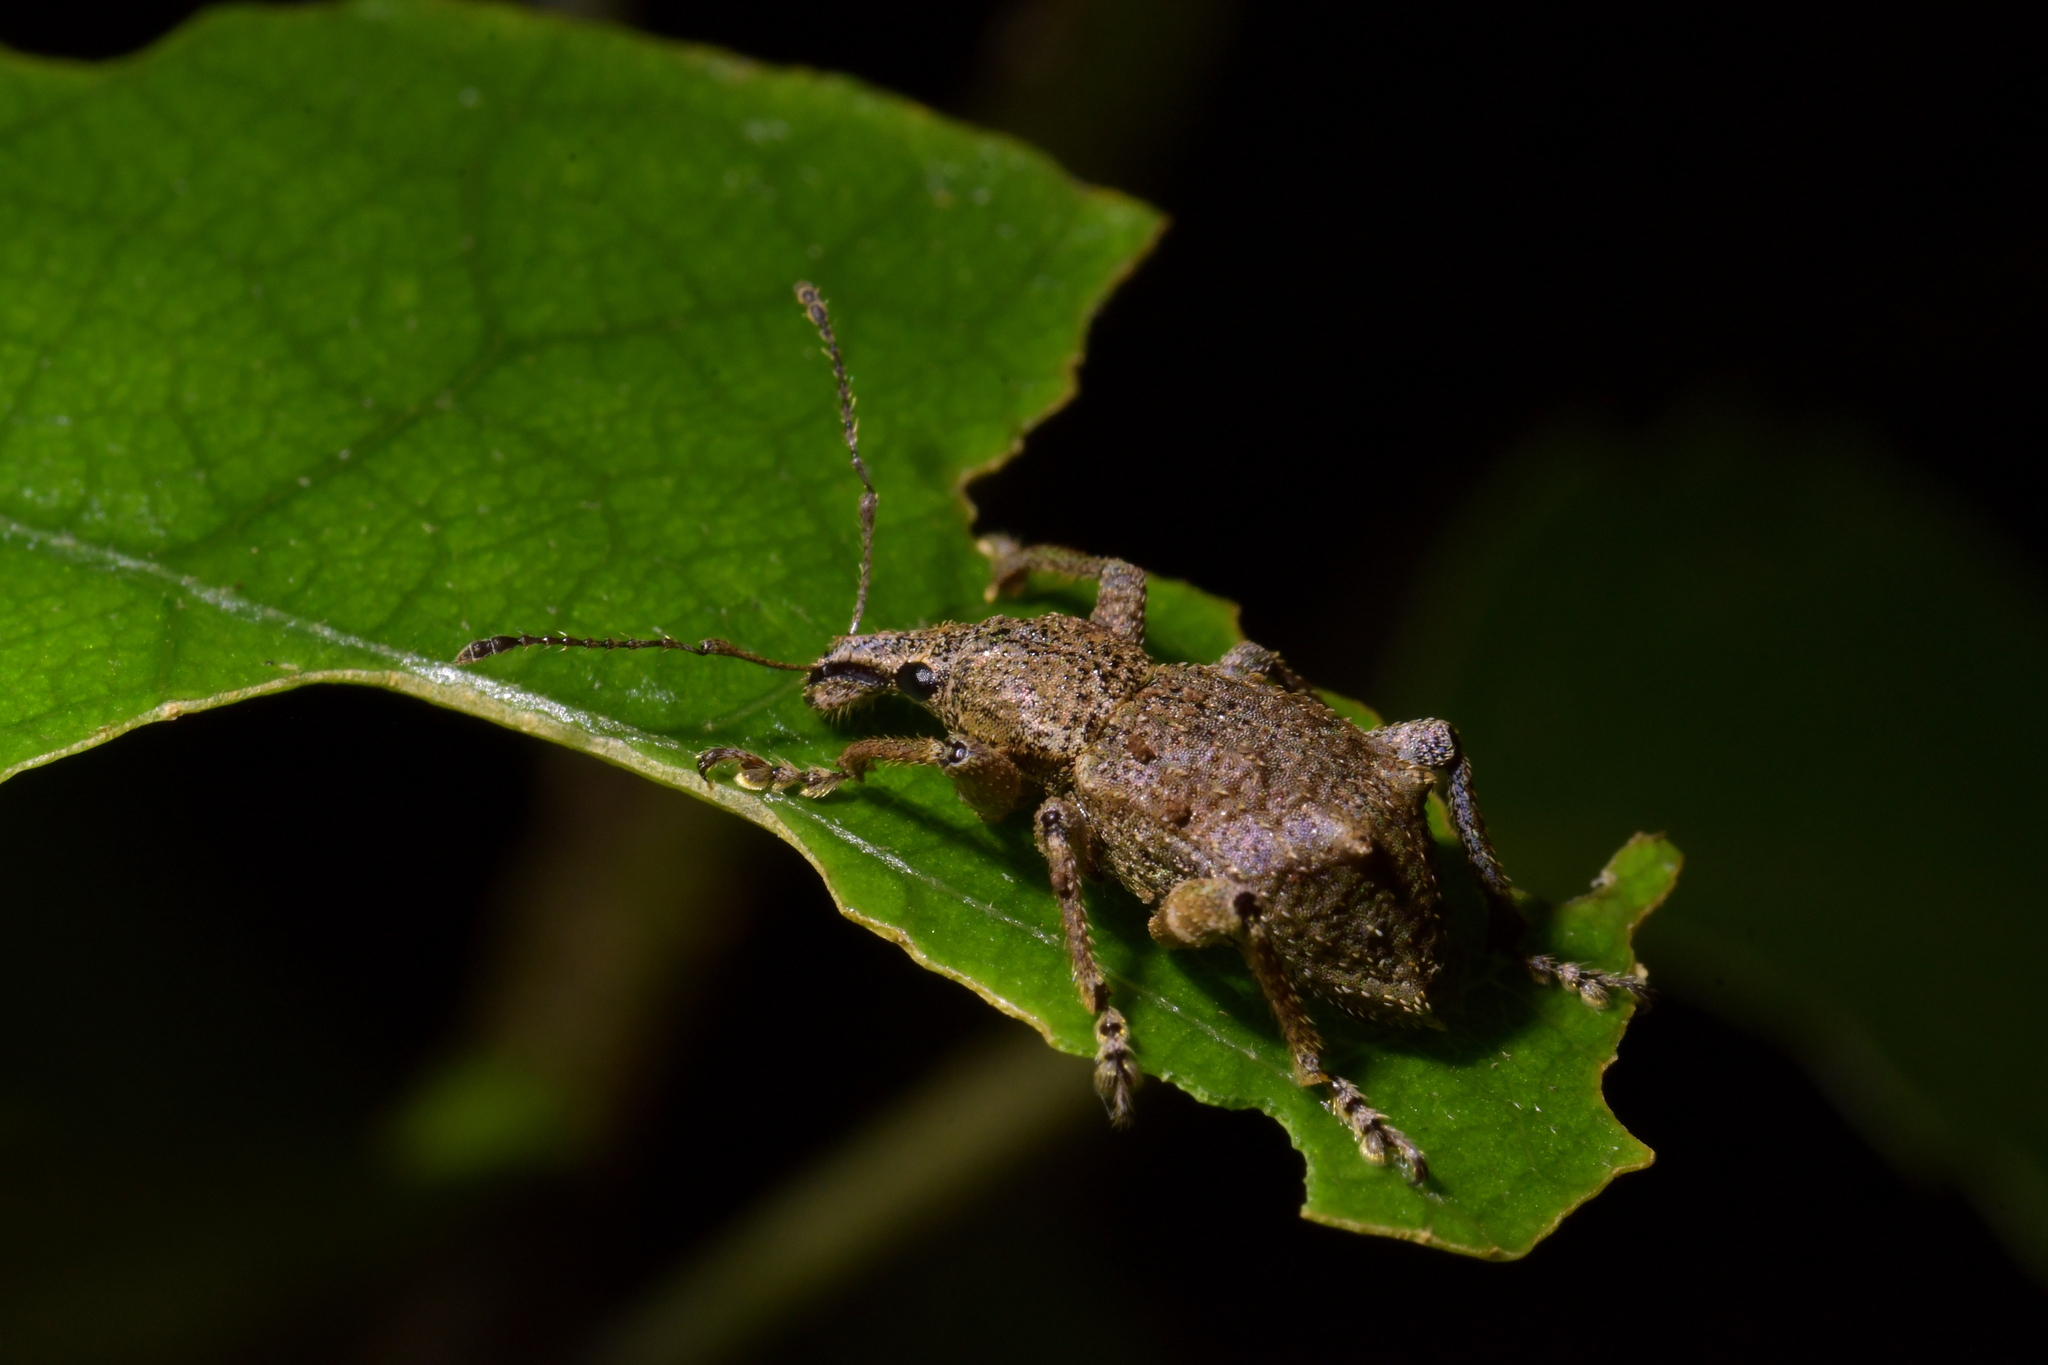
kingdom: Animalia
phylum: Arthropoda
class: Insecta
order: Coleoptera
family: Curculionidae
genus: Catoptes
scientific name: Catoptes binodis
